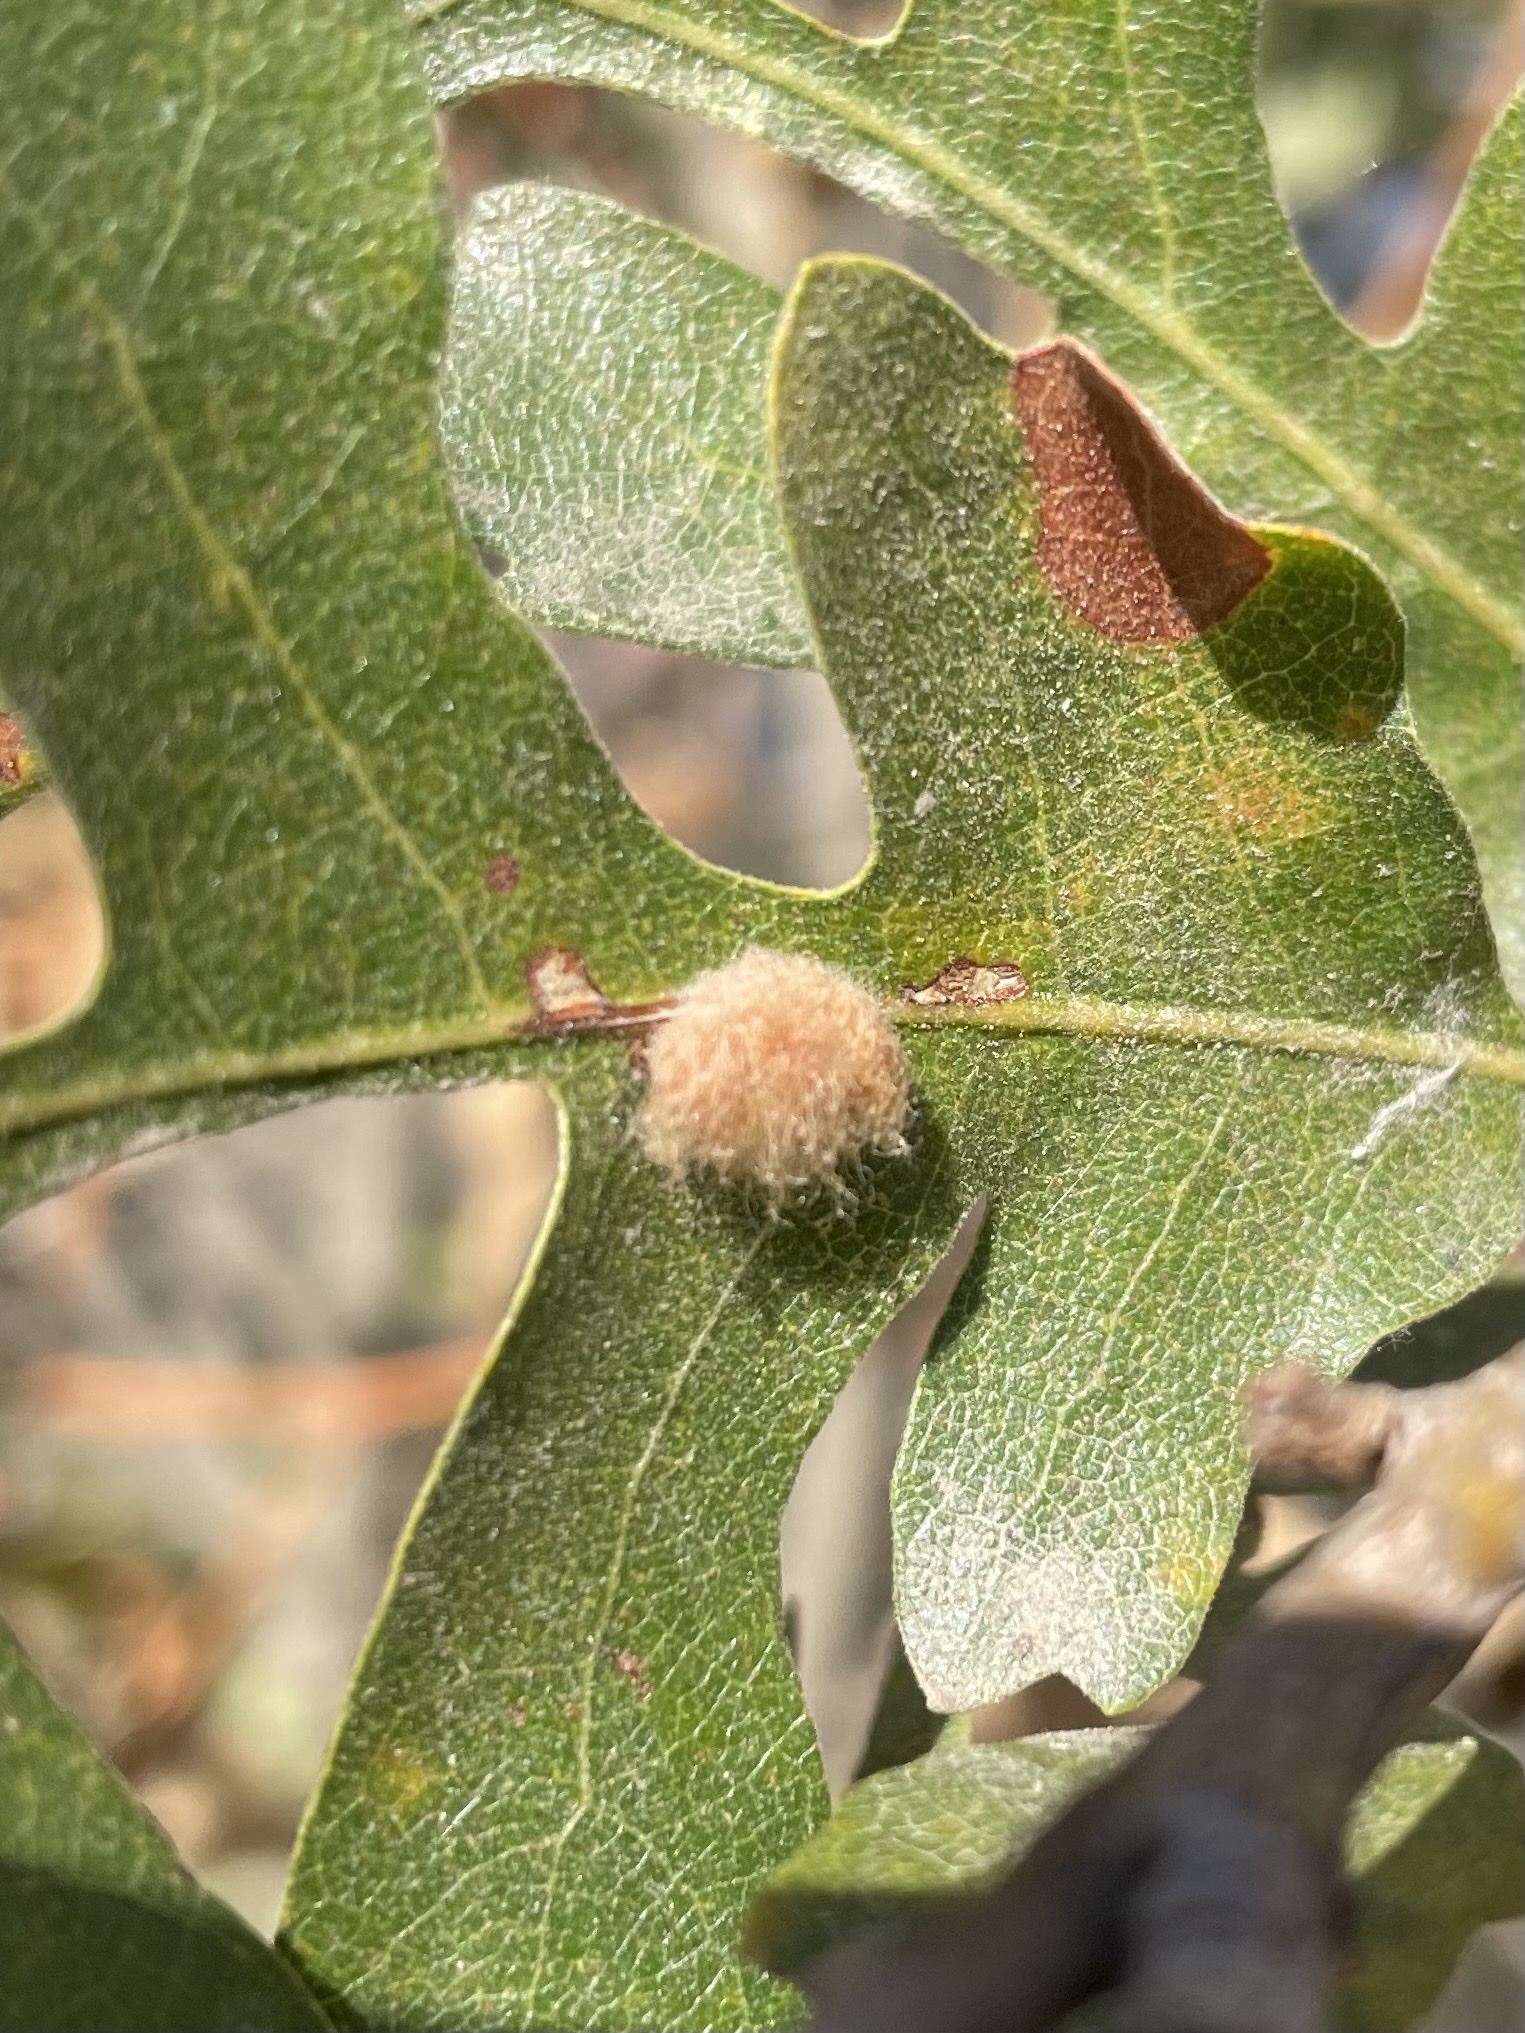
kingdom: Animalia
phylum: Arthropoda
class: Insecta
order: Hymenoptera
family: Cynipidae
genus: Andricus
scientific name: Andricus Druon fullawayi
